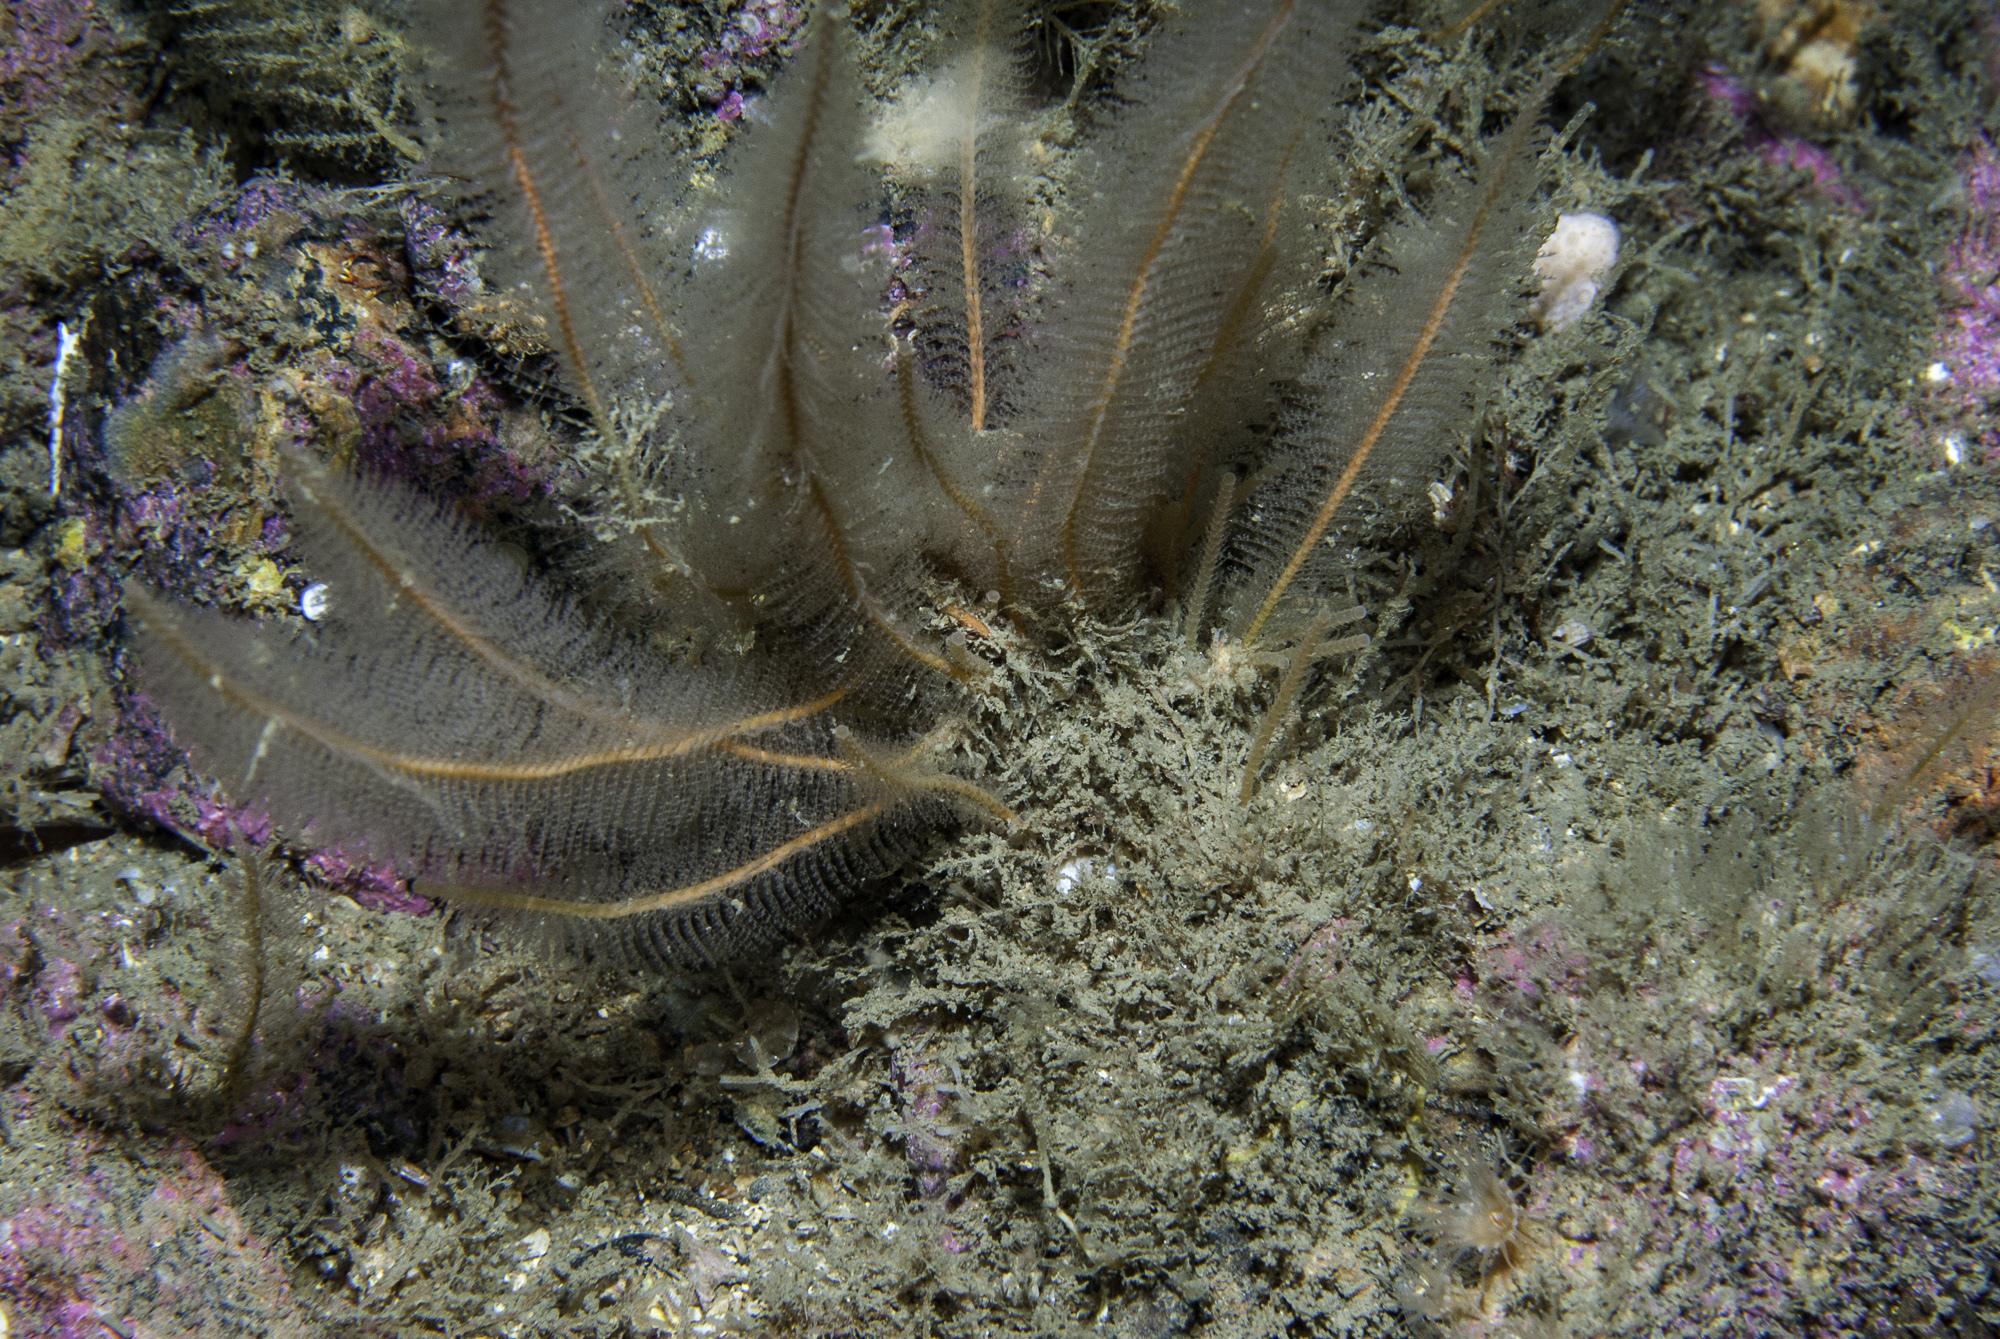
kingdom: Animalia
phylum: Cnidaria
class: Hydrozoa
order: Leptothecata
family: Plumulariidae
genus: Nemertesia
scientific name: Nemertesia antennina
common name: Sea beard
